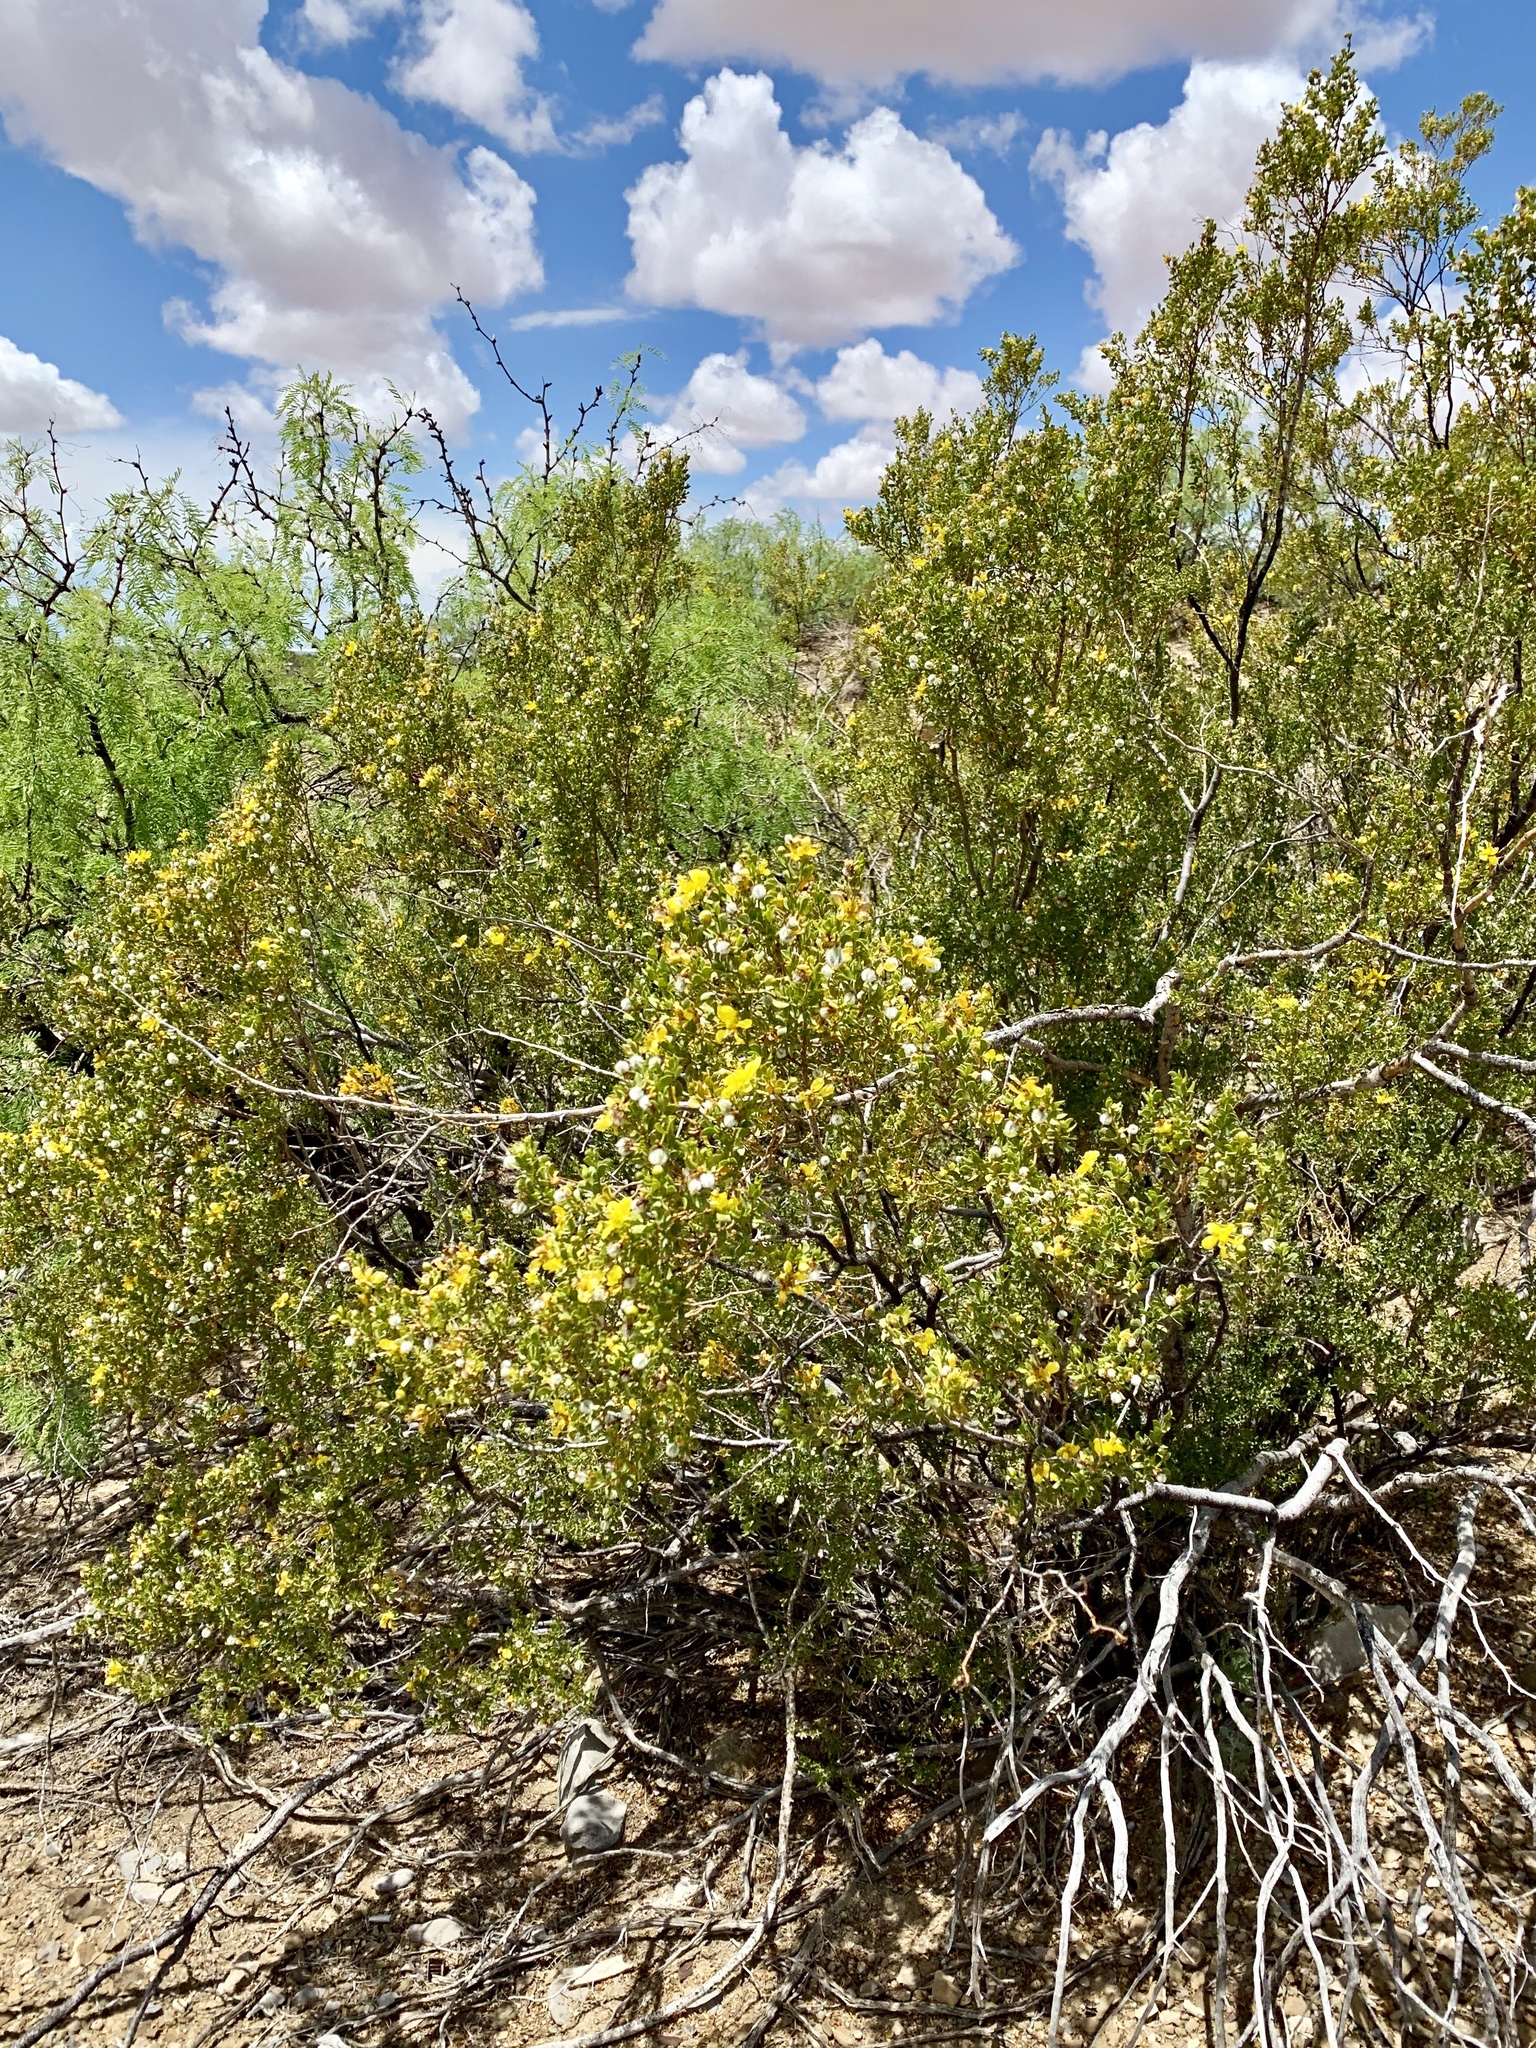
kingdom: Plantae
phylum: Tracheophyta
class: Magnoliopsida
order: Zygophyllales
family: Zygophyllaceae
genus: Larrea
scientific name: Larrea tridentata
